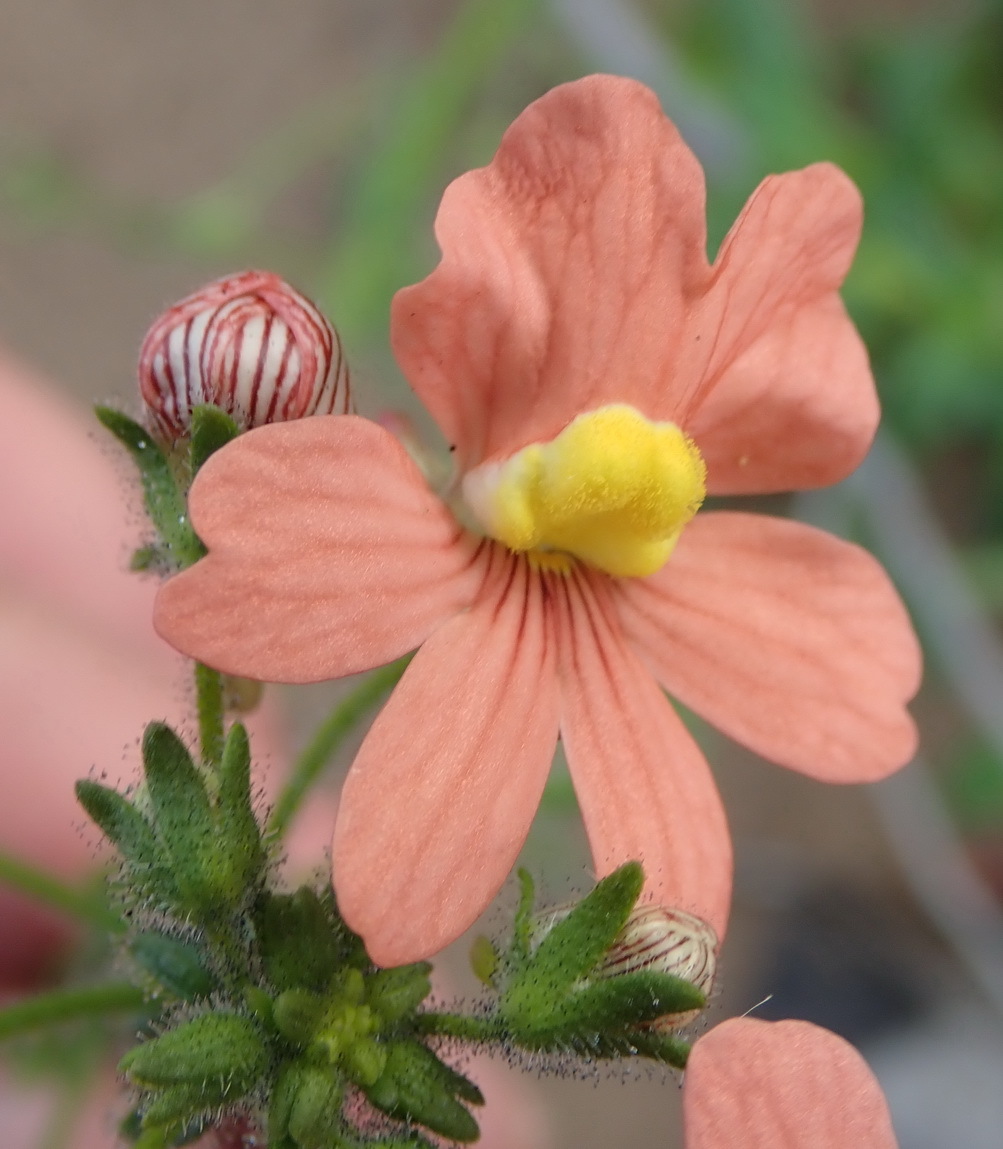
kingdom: Plantae
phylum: Tracheophyta
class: Magnoliopsida
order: Lamiales
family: Scrophulariaceae
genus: Nemesia
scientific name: Nemesia versicolor
